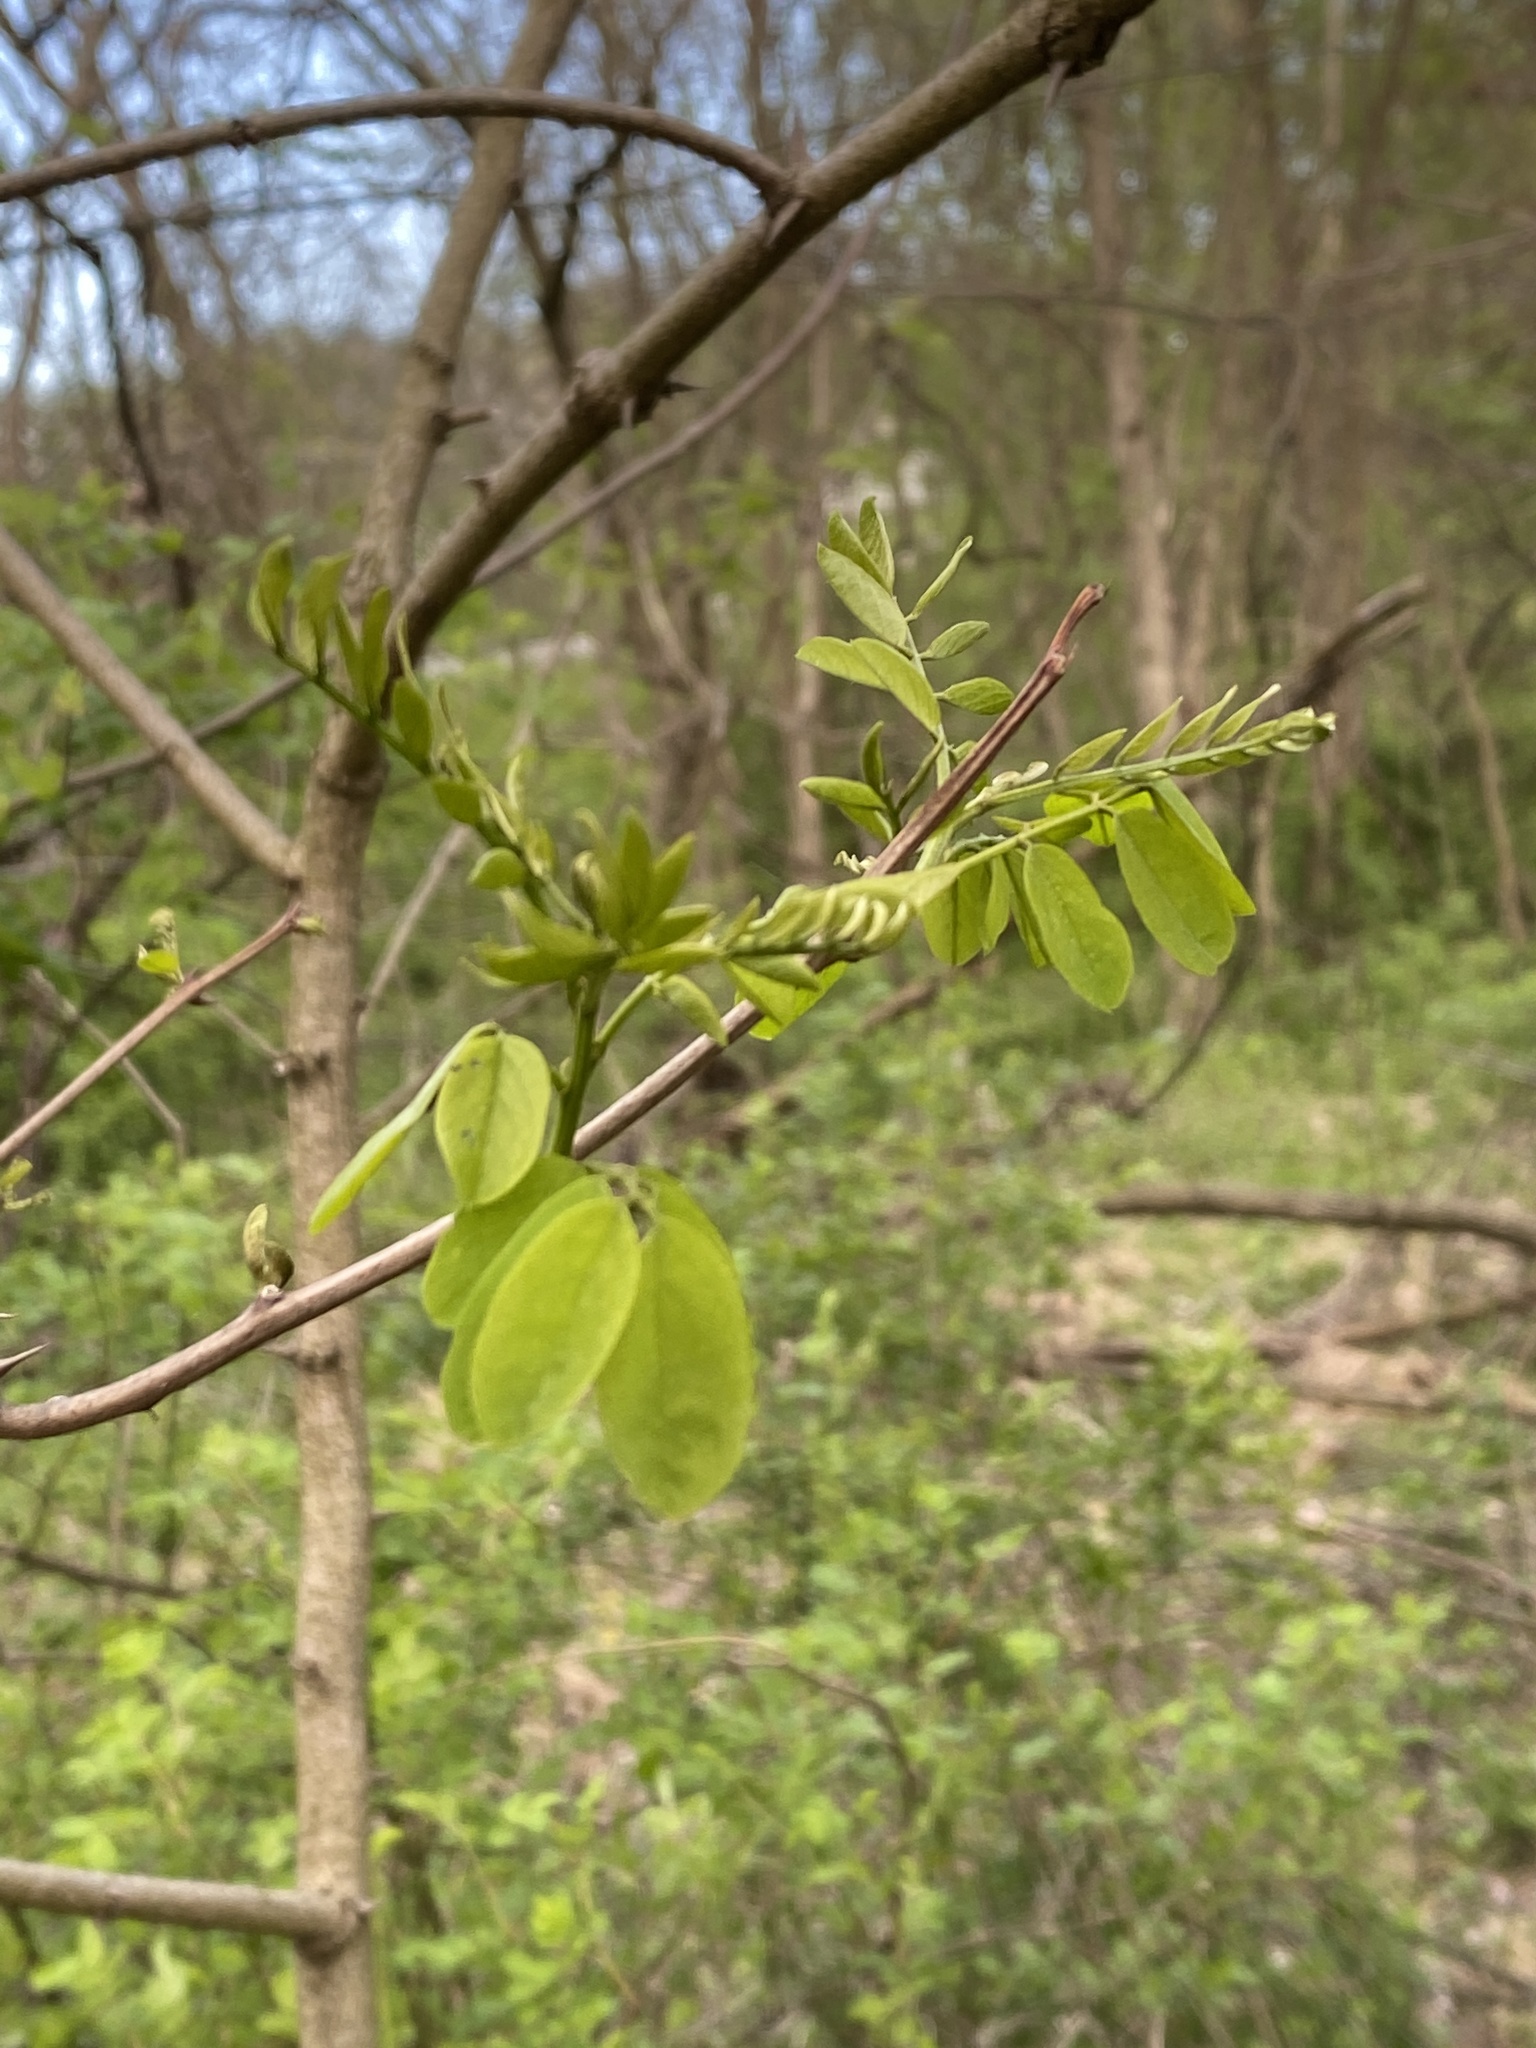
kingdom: Plantae
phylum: Tracheophyta
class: Magnoliopsida
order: Fabales
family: Fabaceae
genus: Robinia
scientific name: Robinia pseudoacacia
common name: Black locust
